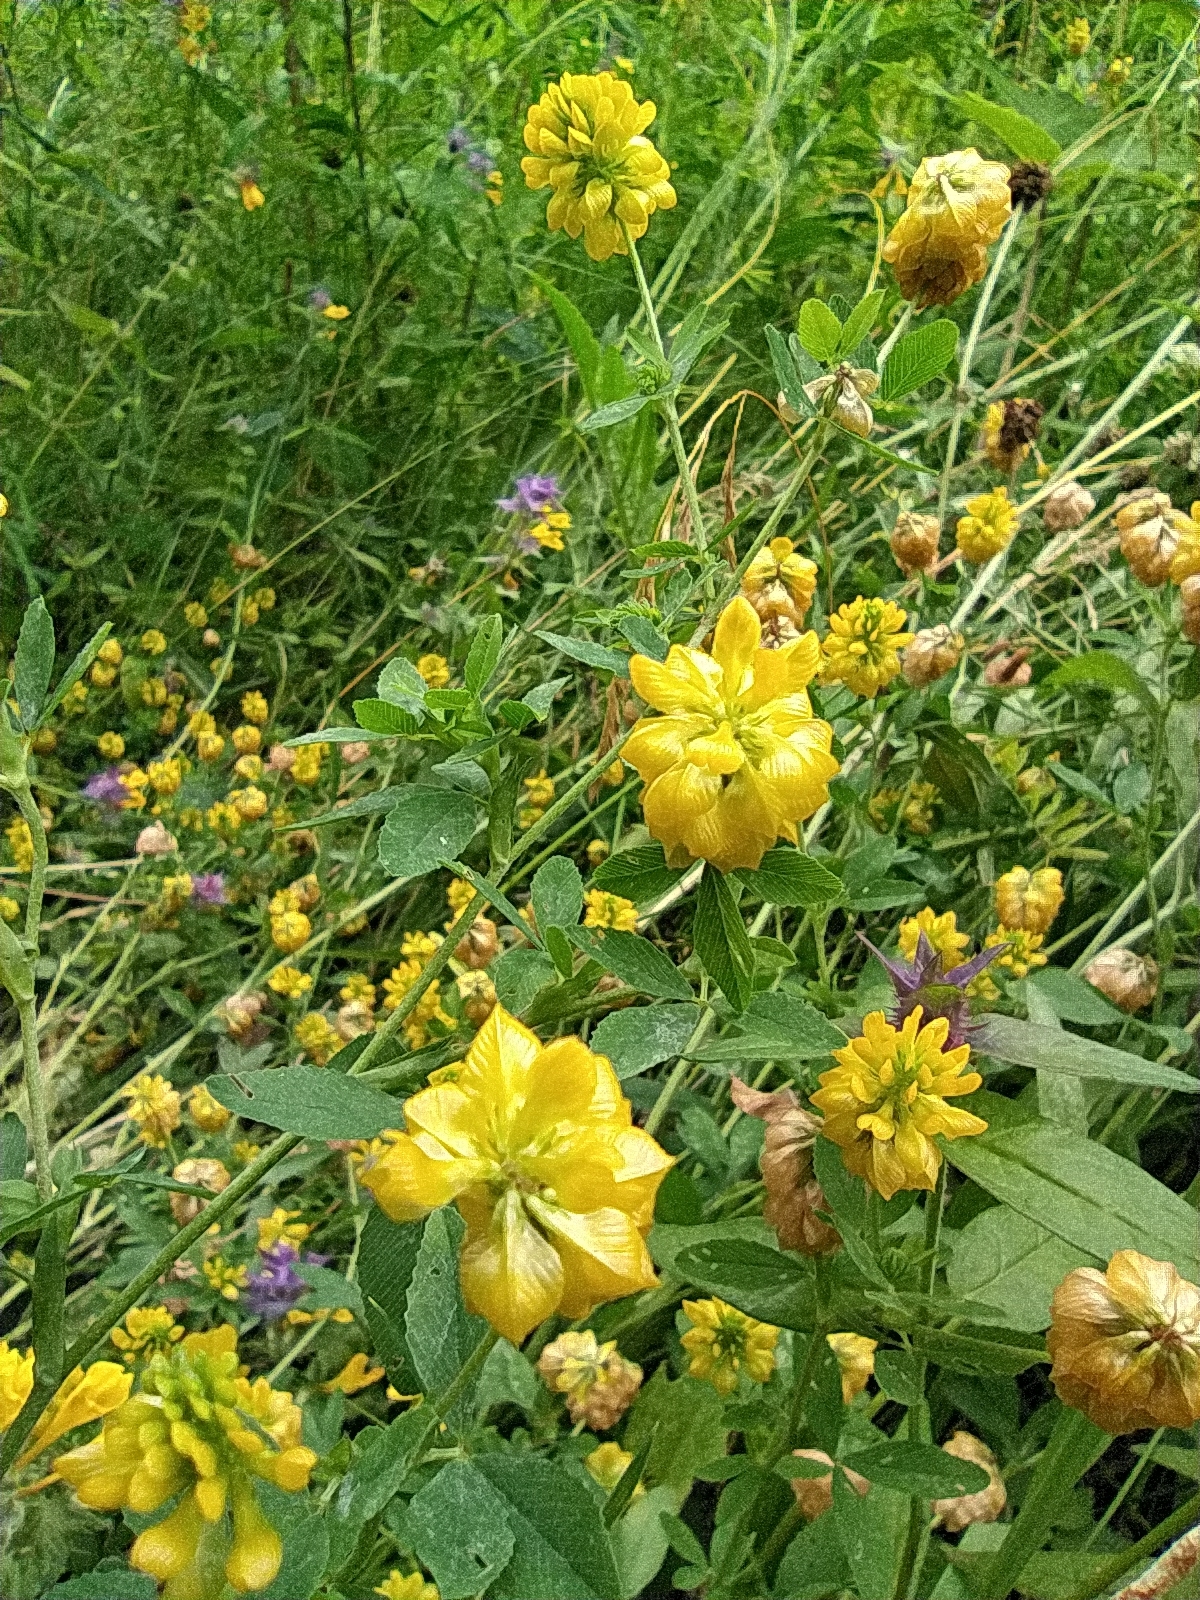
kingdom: Plantae
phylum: Tracheophyta
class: Magnoliopsida
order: Fabales
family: Fabaceae
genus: Trifolium
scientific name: Trifolium aureum
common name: Golden clover
